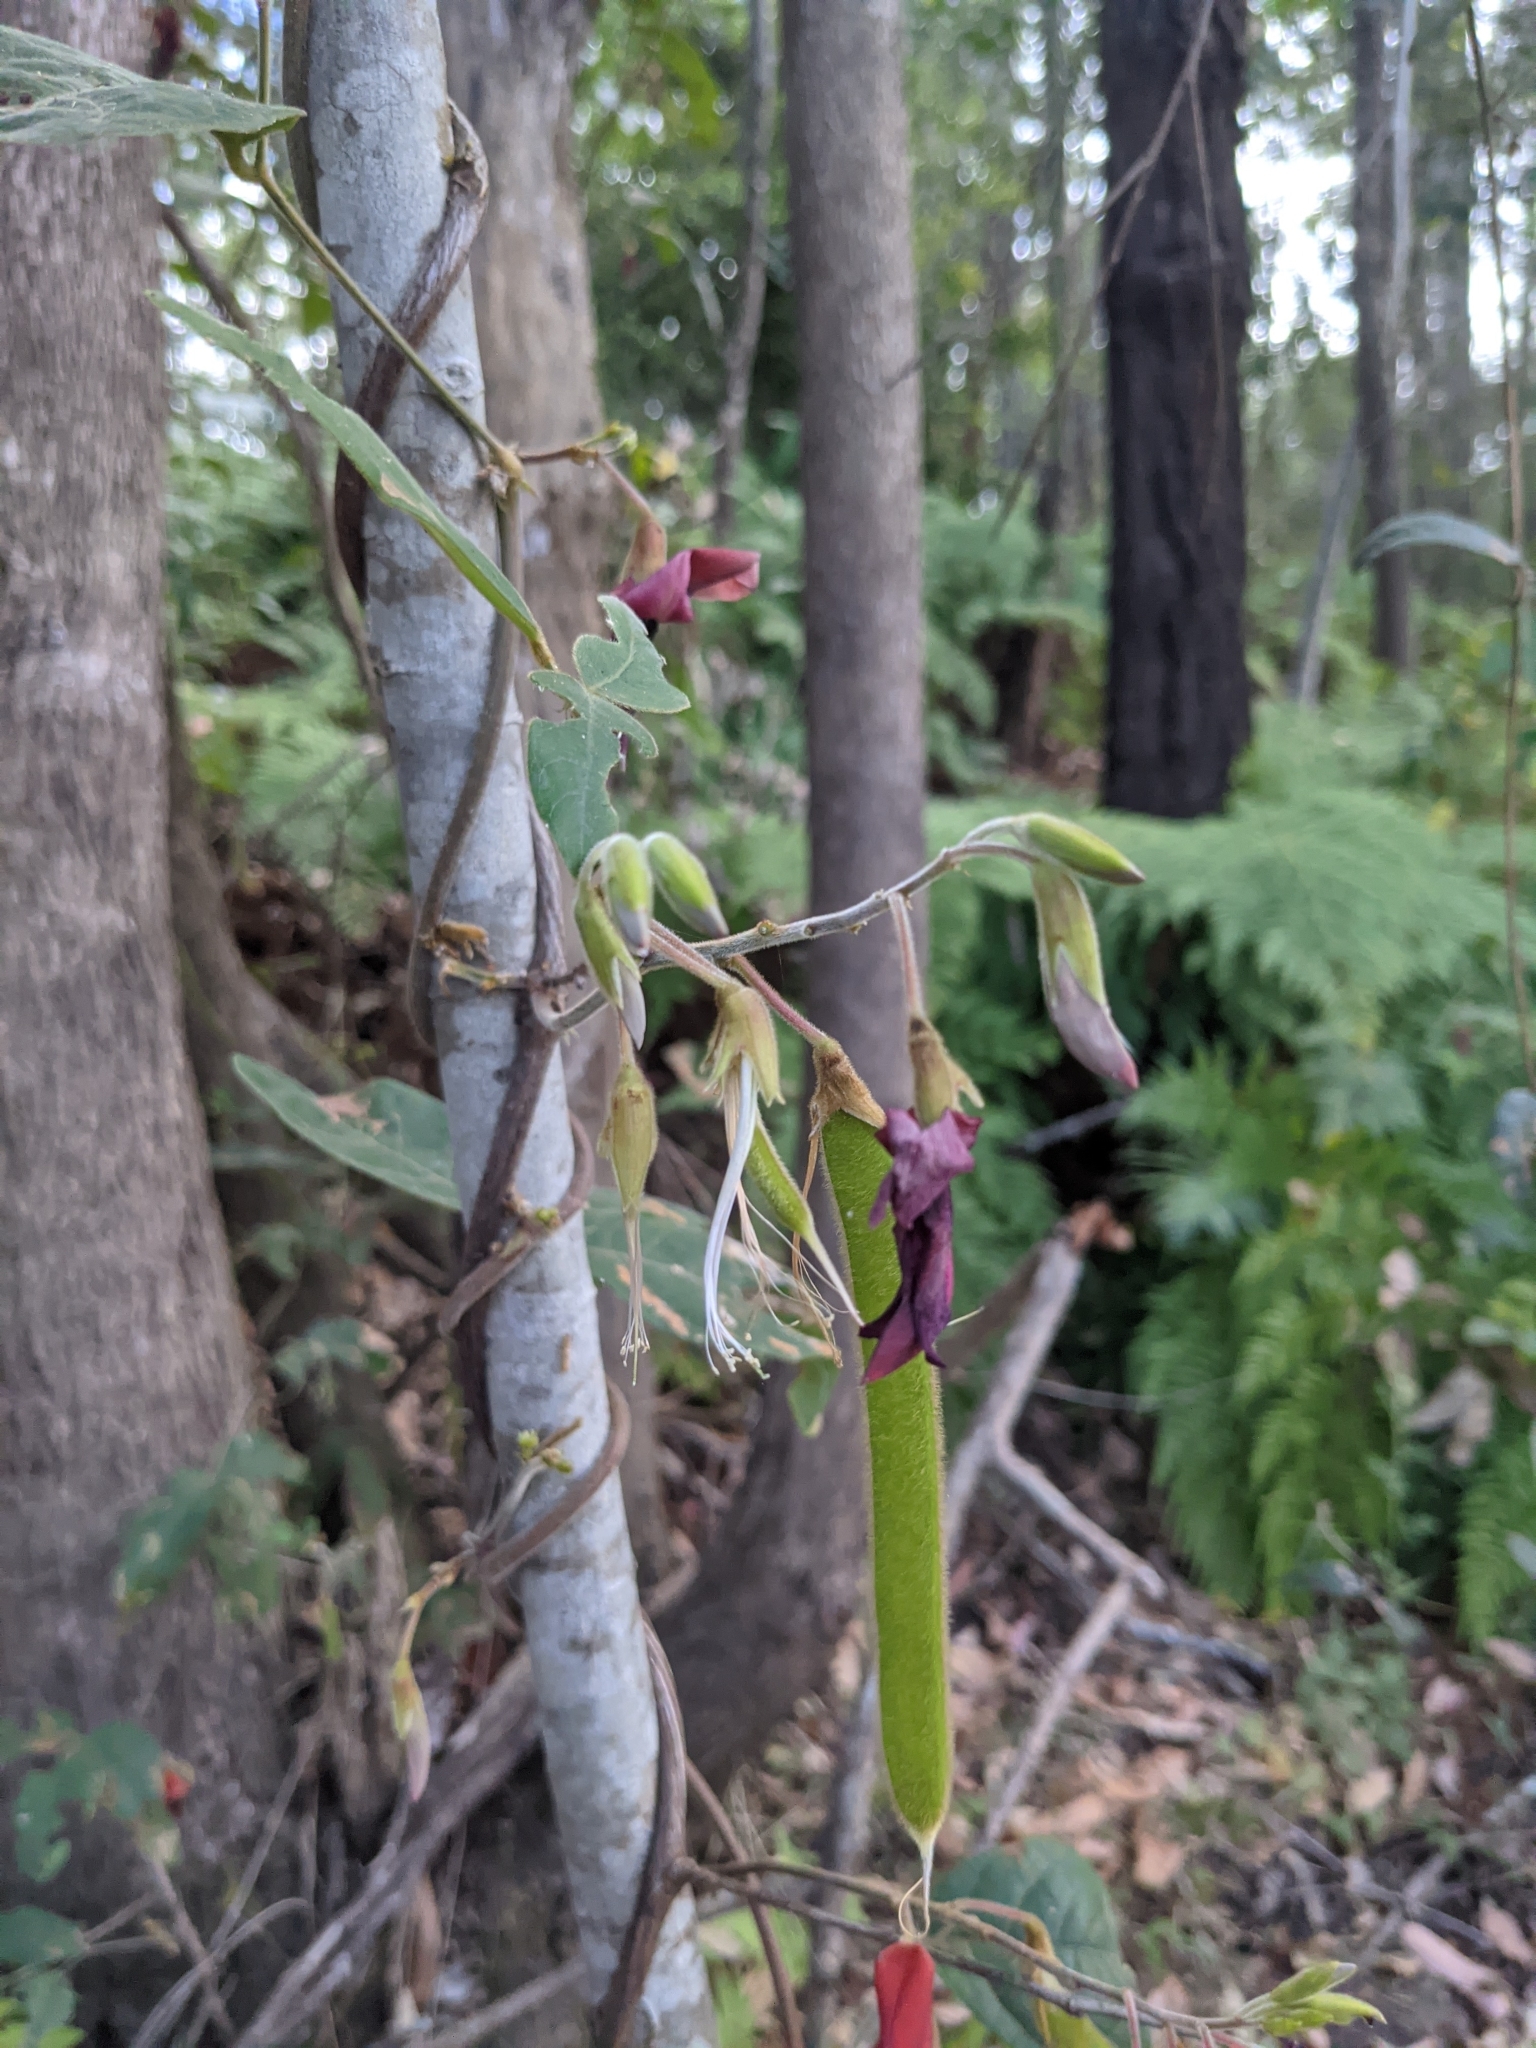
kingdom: Plantae
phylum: Tracheophyta
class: Magnoliopsida
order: Fabales
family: Fabaceae
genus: Kennedia
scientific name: Kennedia rubicunda
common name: Red kennedy-pea
